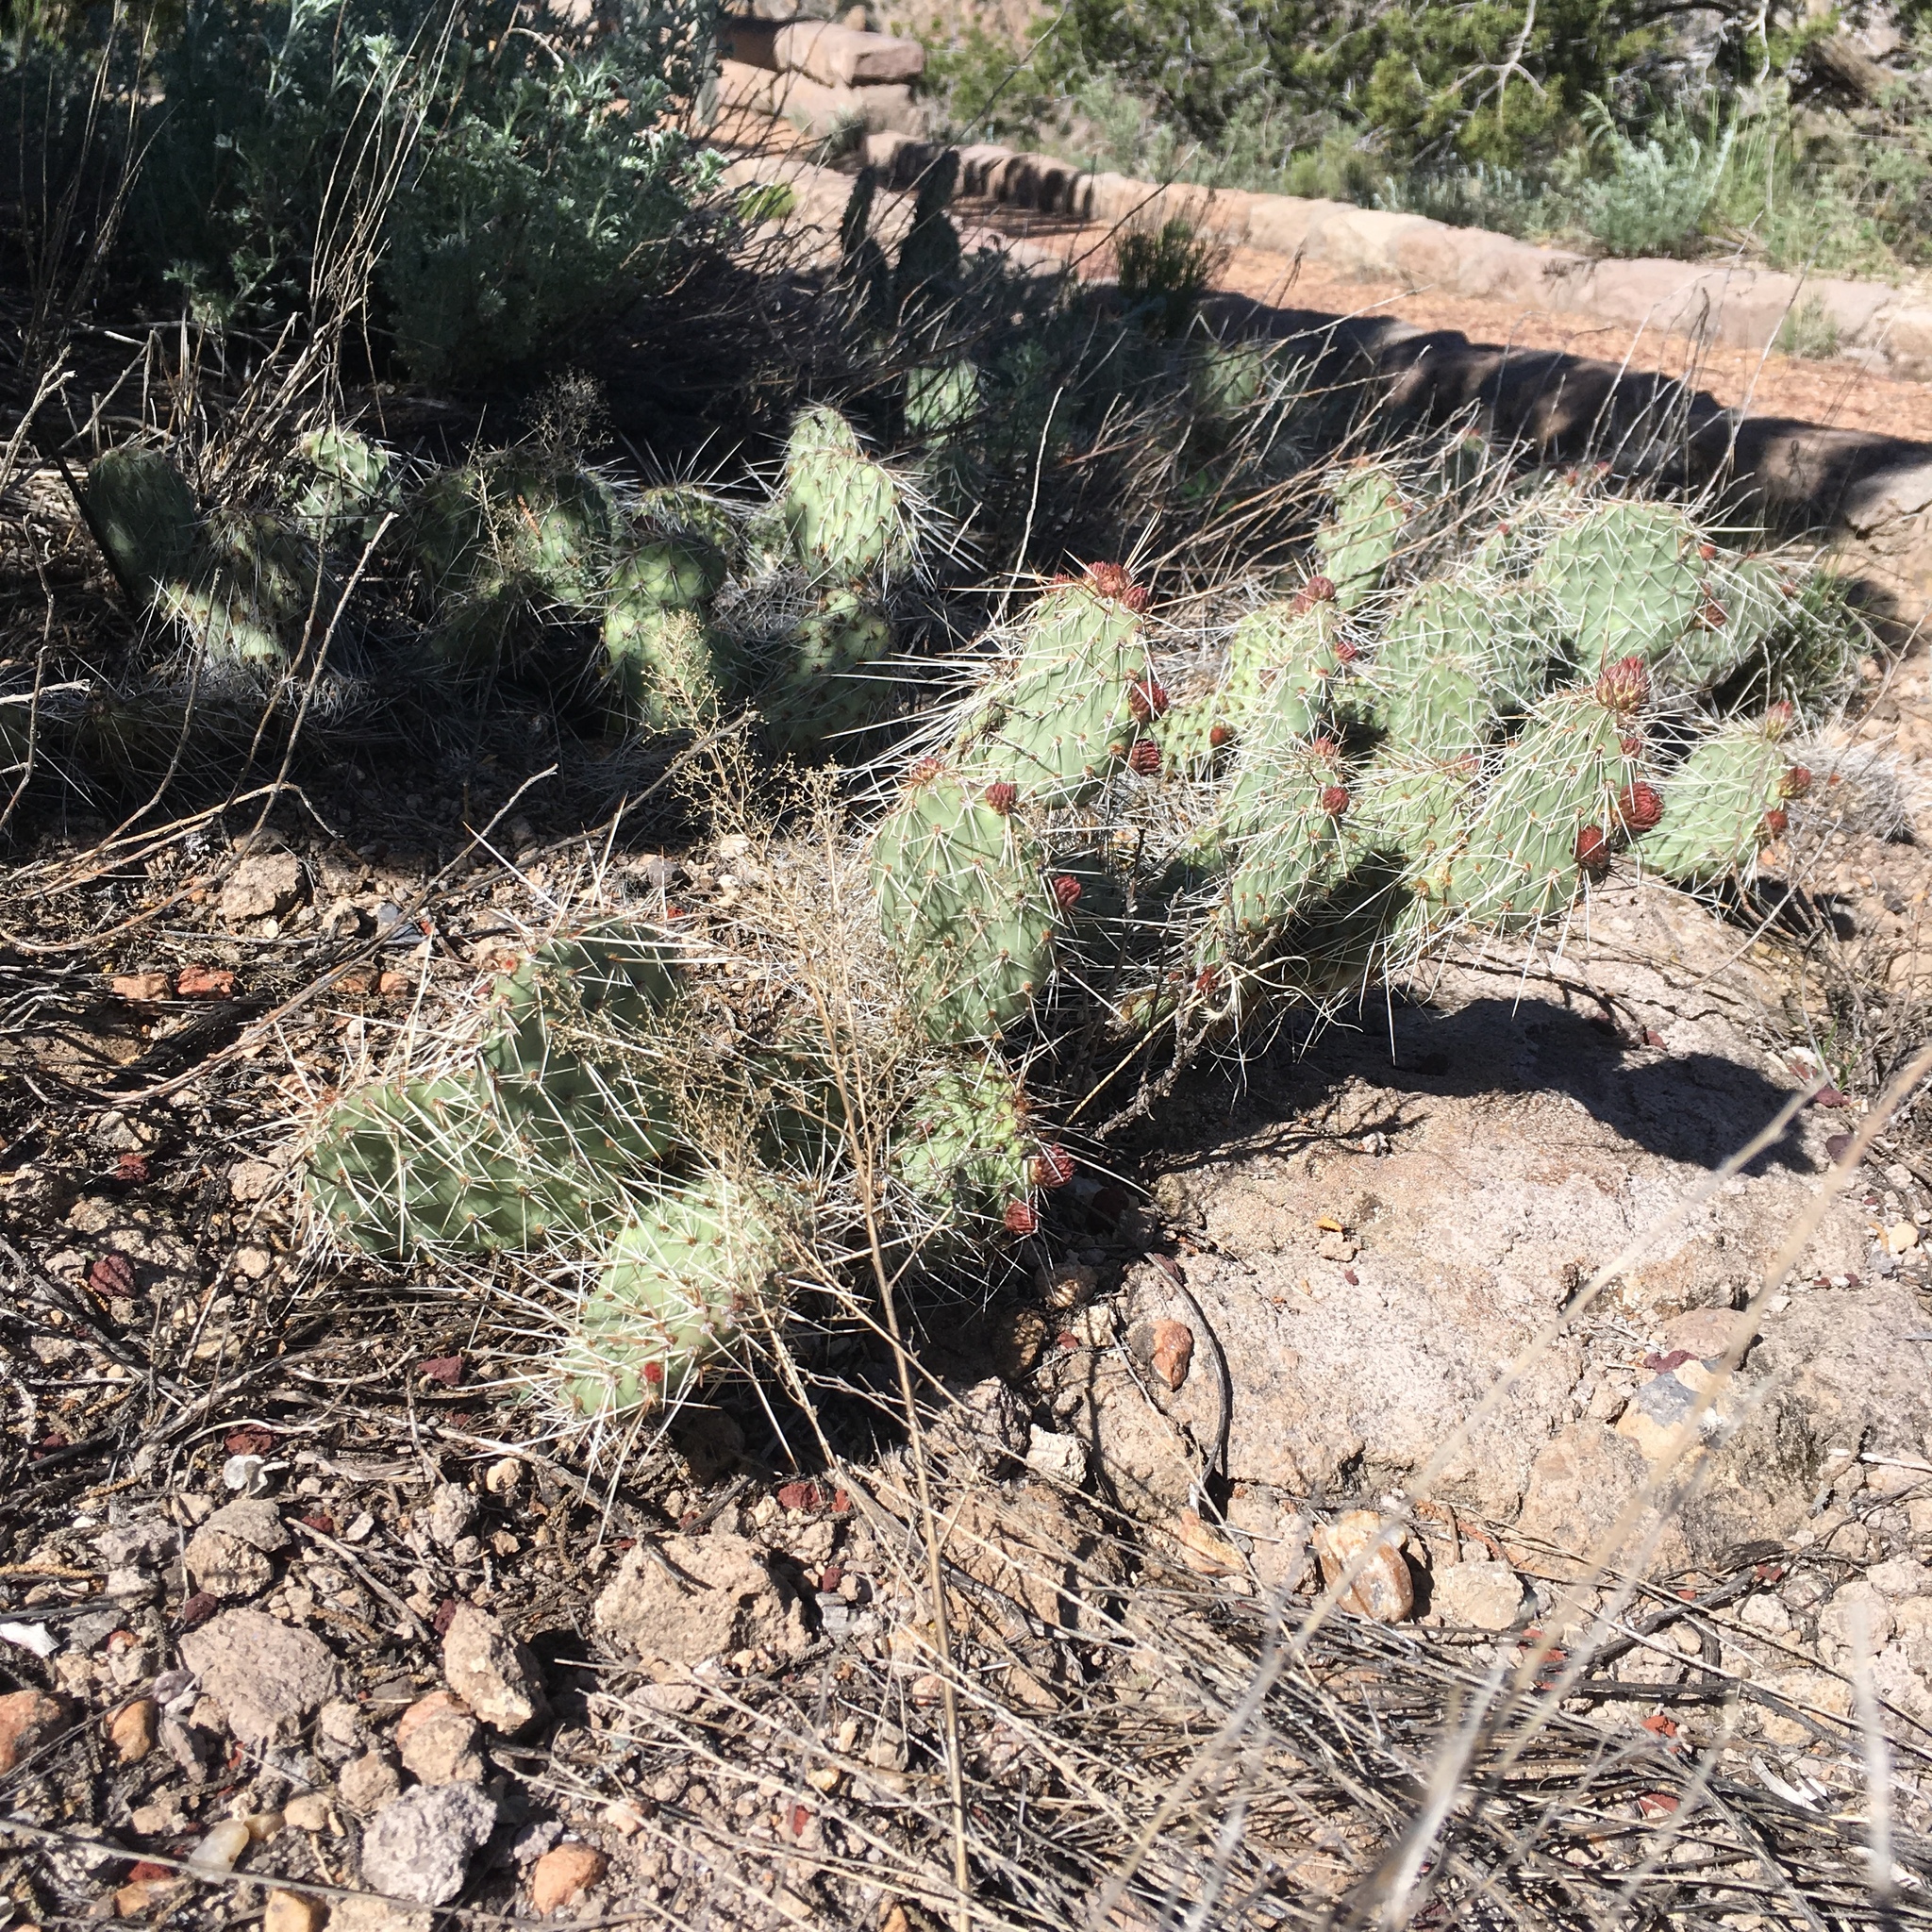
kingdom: Plantae
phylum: Tracheophyta
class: Magnoliopsida
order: Caryophyllales
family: Cactaceae
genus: Opuntia
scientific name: Opuntia polyacantha
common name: Plains prickly-pear
